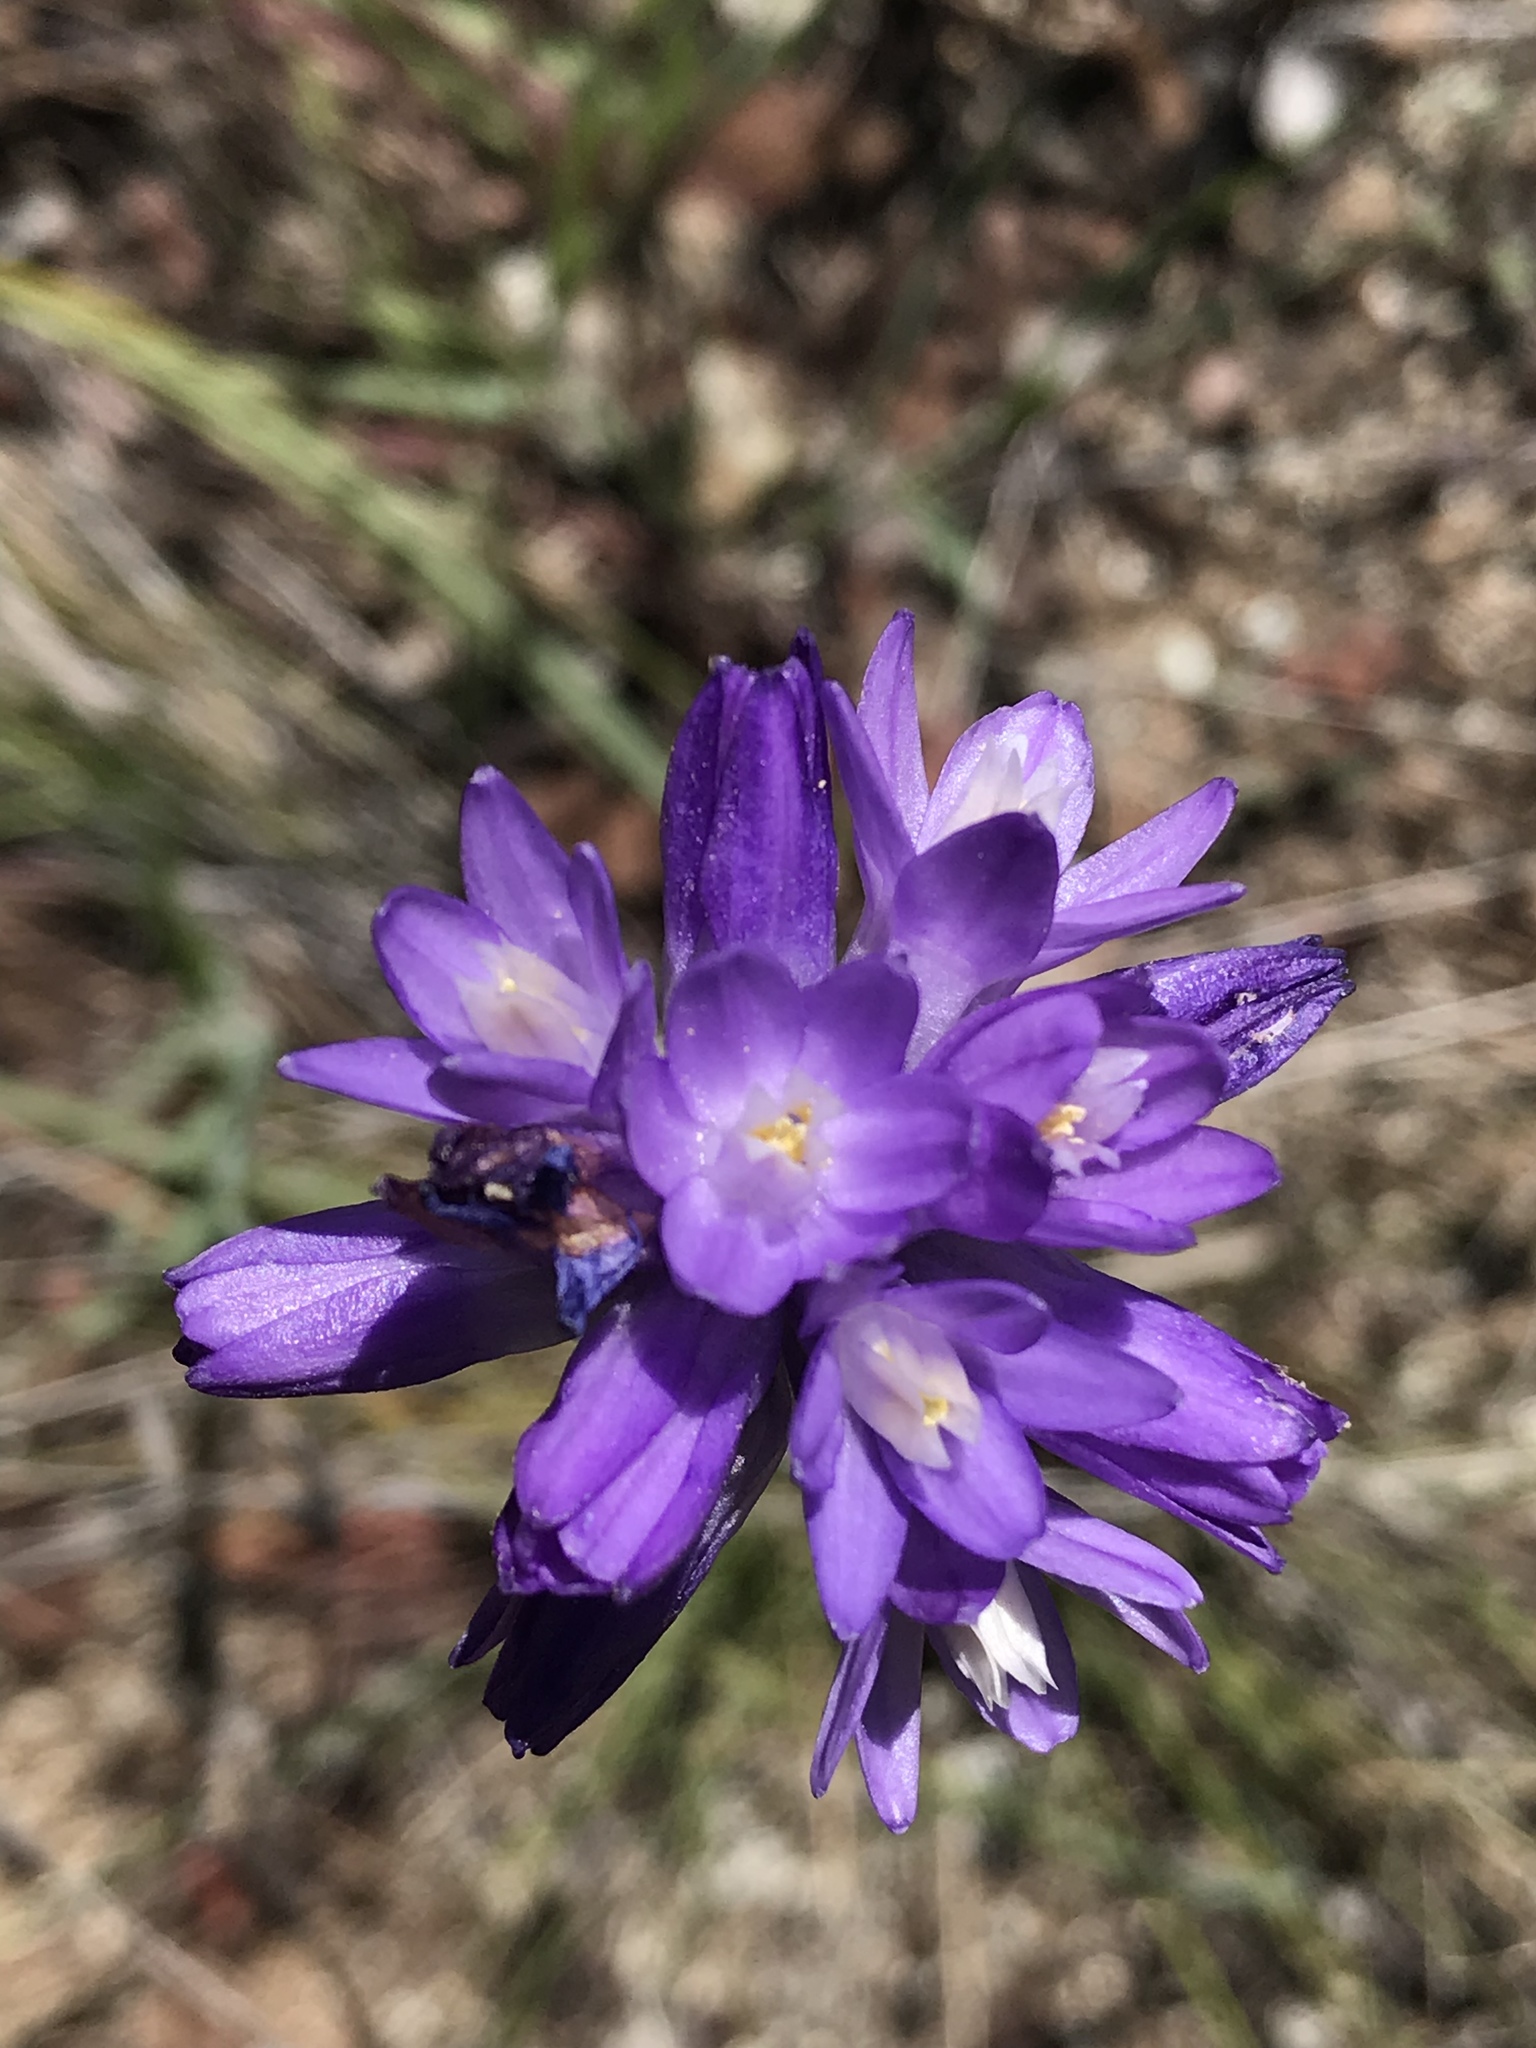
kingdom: Plantae
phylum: Tracheophyta
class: Liliopsida
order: Asparagales
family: Asparagaceae
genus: Dipterostemon
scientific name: Dipterostemon capitatus
